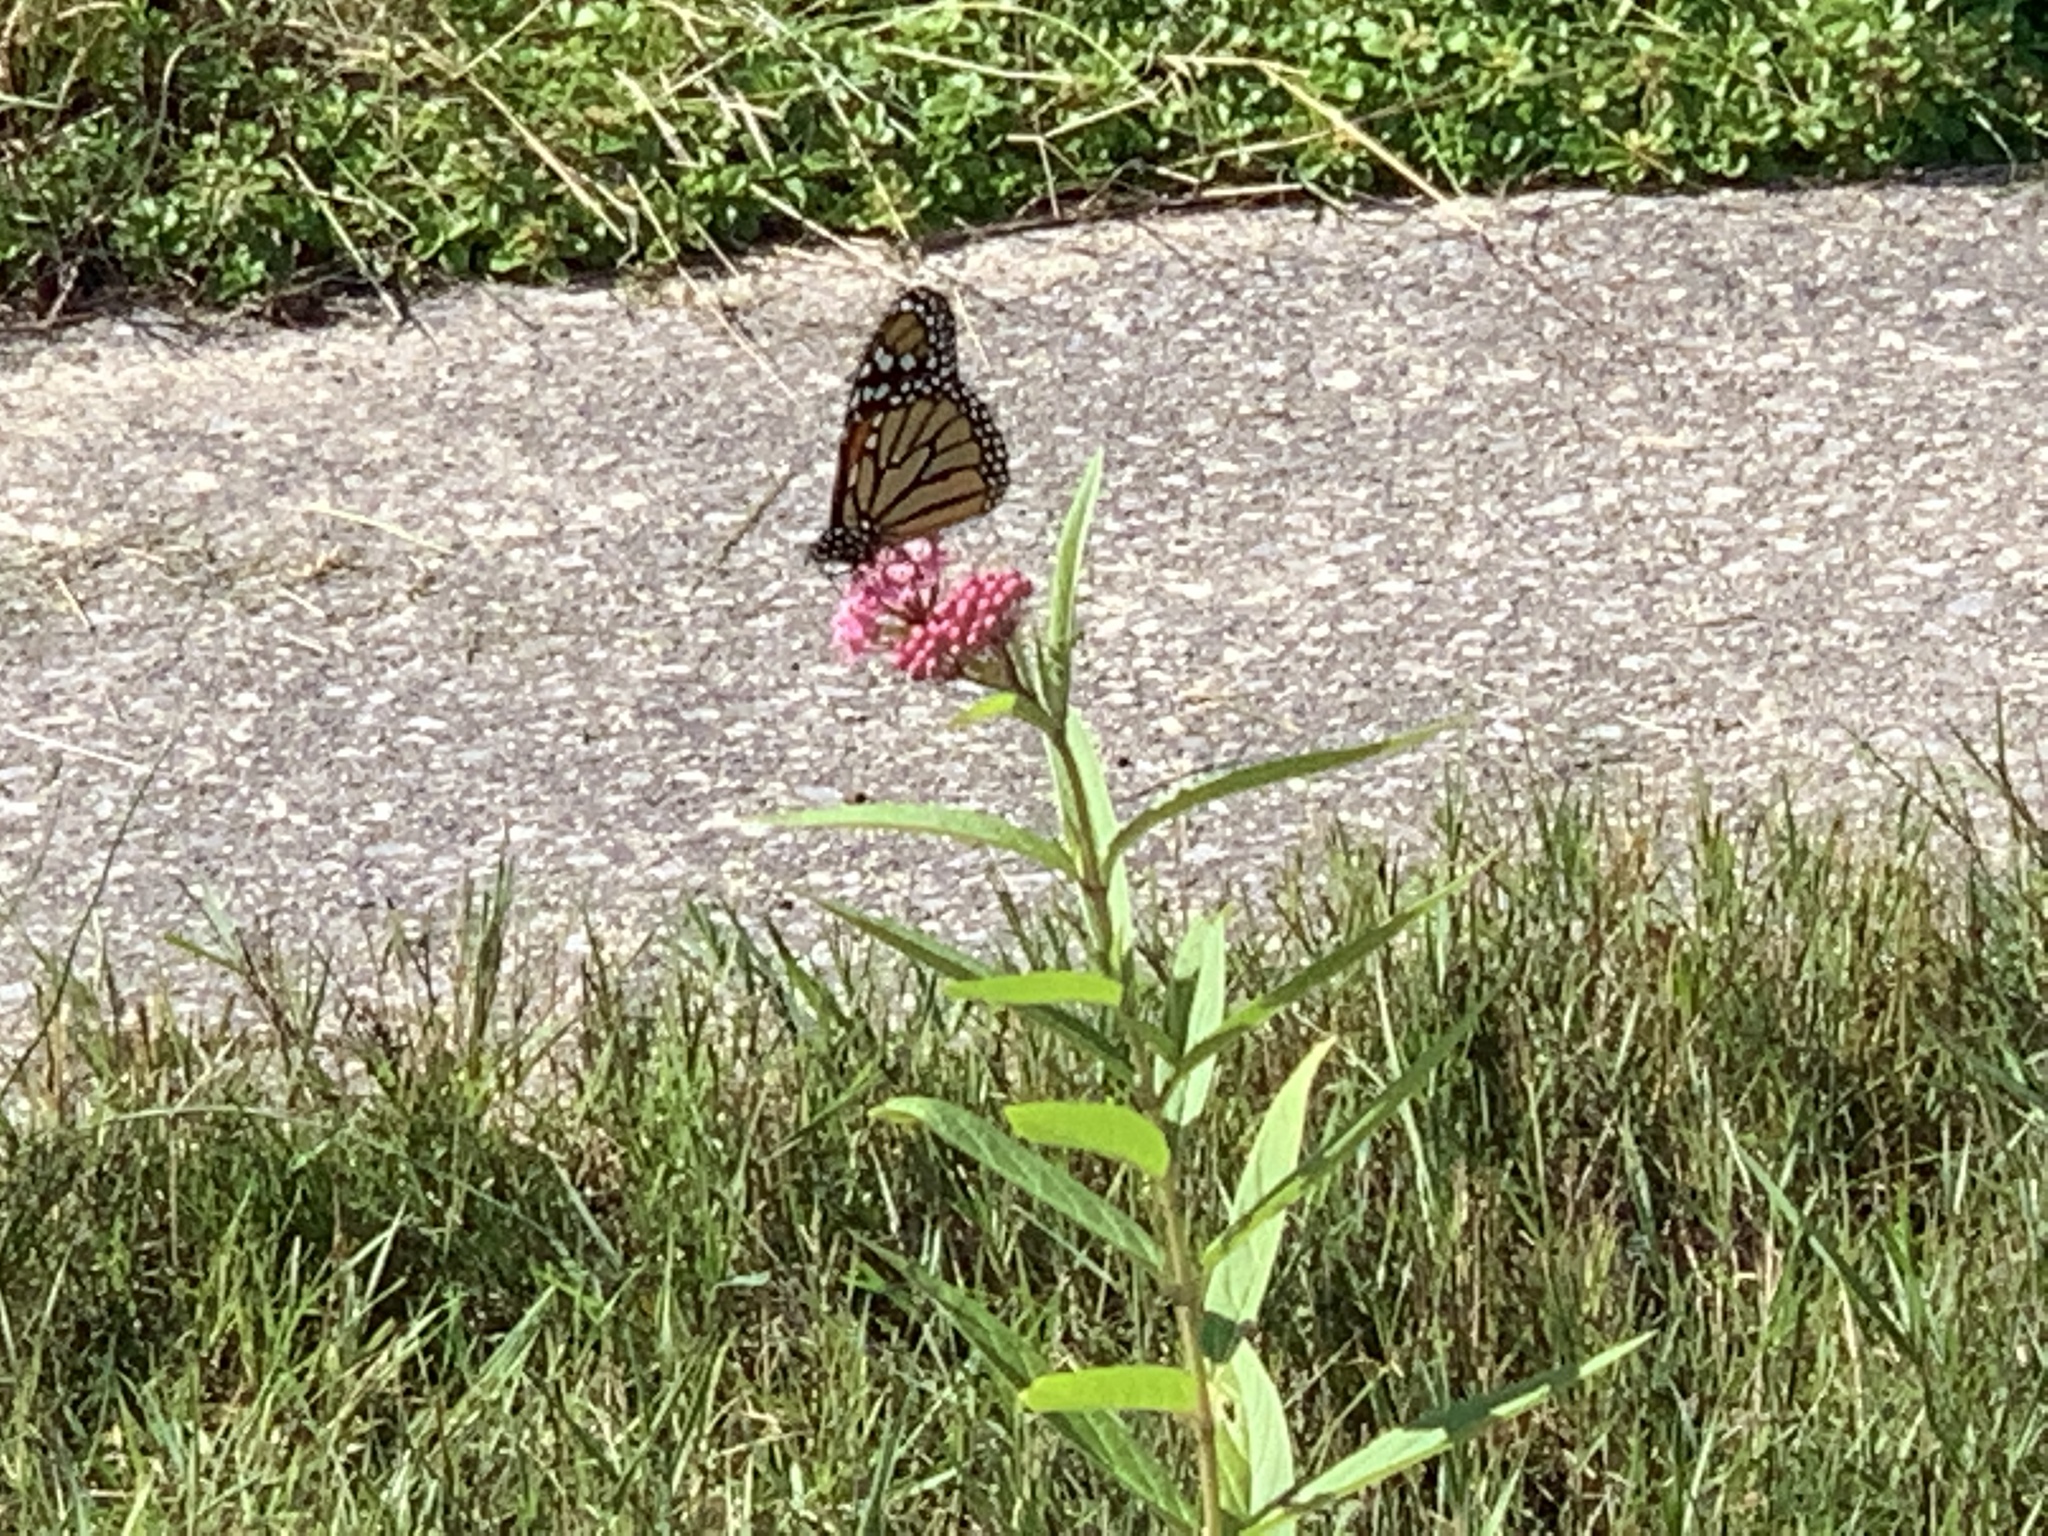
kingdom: Animalia
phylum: Arthropoda
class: Insecta
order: Lepidoptera
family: Nymphalidae
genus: Danaus
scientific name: Danaus plexippus
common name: Monarch
